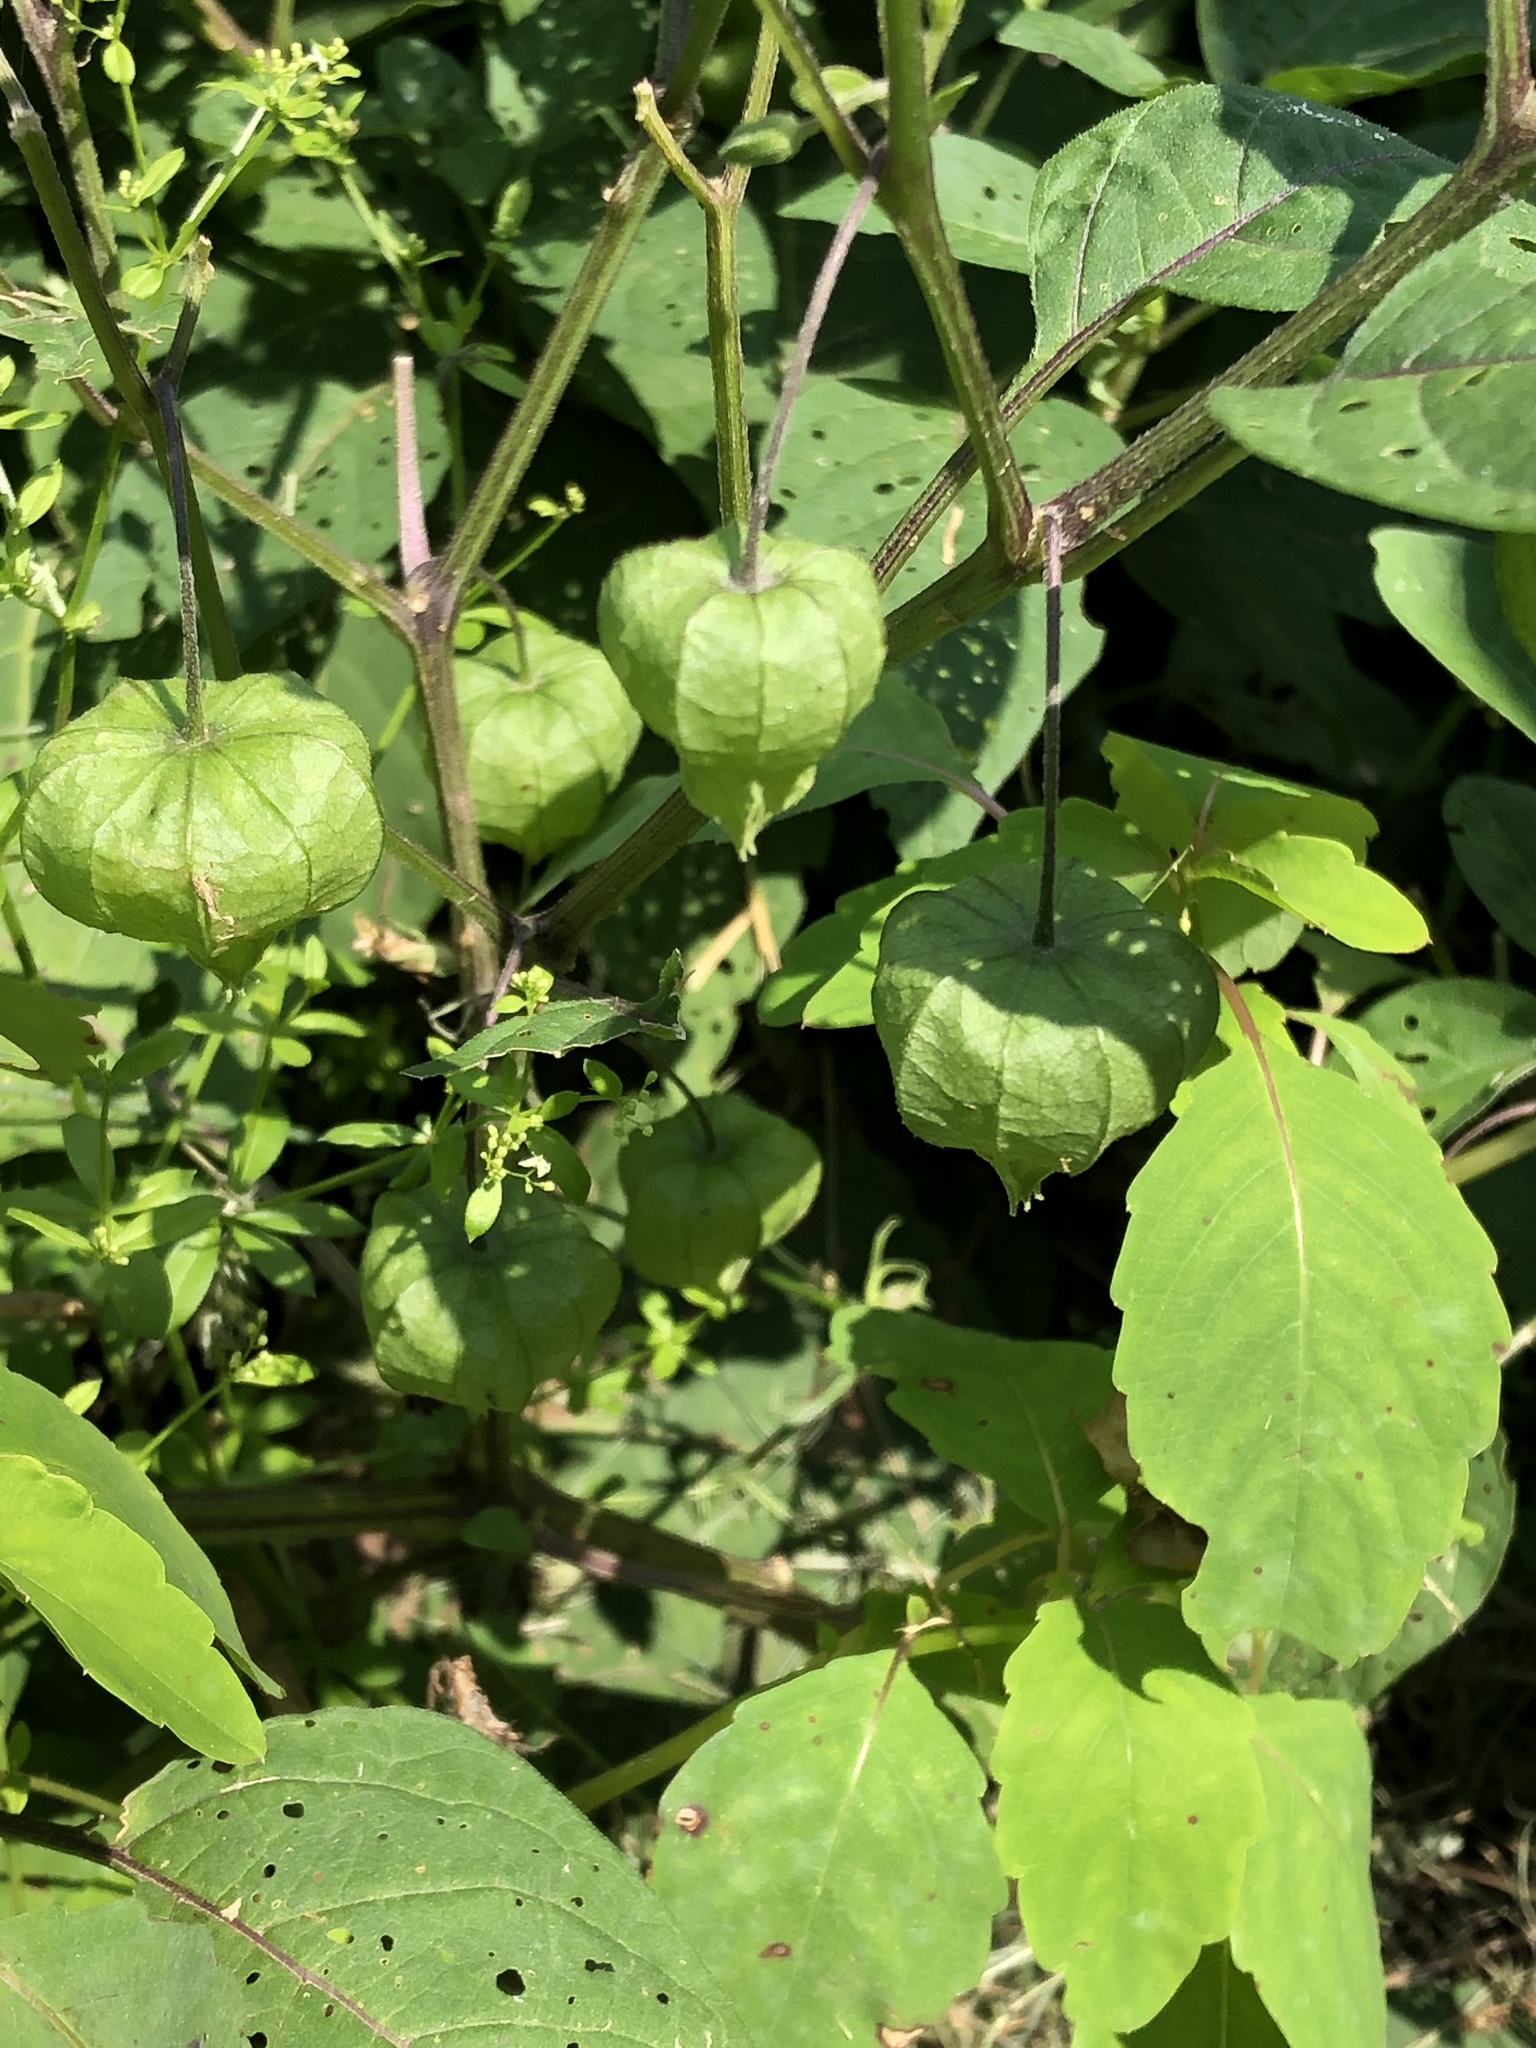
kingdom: Plantae
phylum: Tracheophyta
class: Magnoliopsida
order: Solanales
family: Solanaceae
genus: Physalis
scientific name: Physalis longifolia
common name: Common ground-cherry
